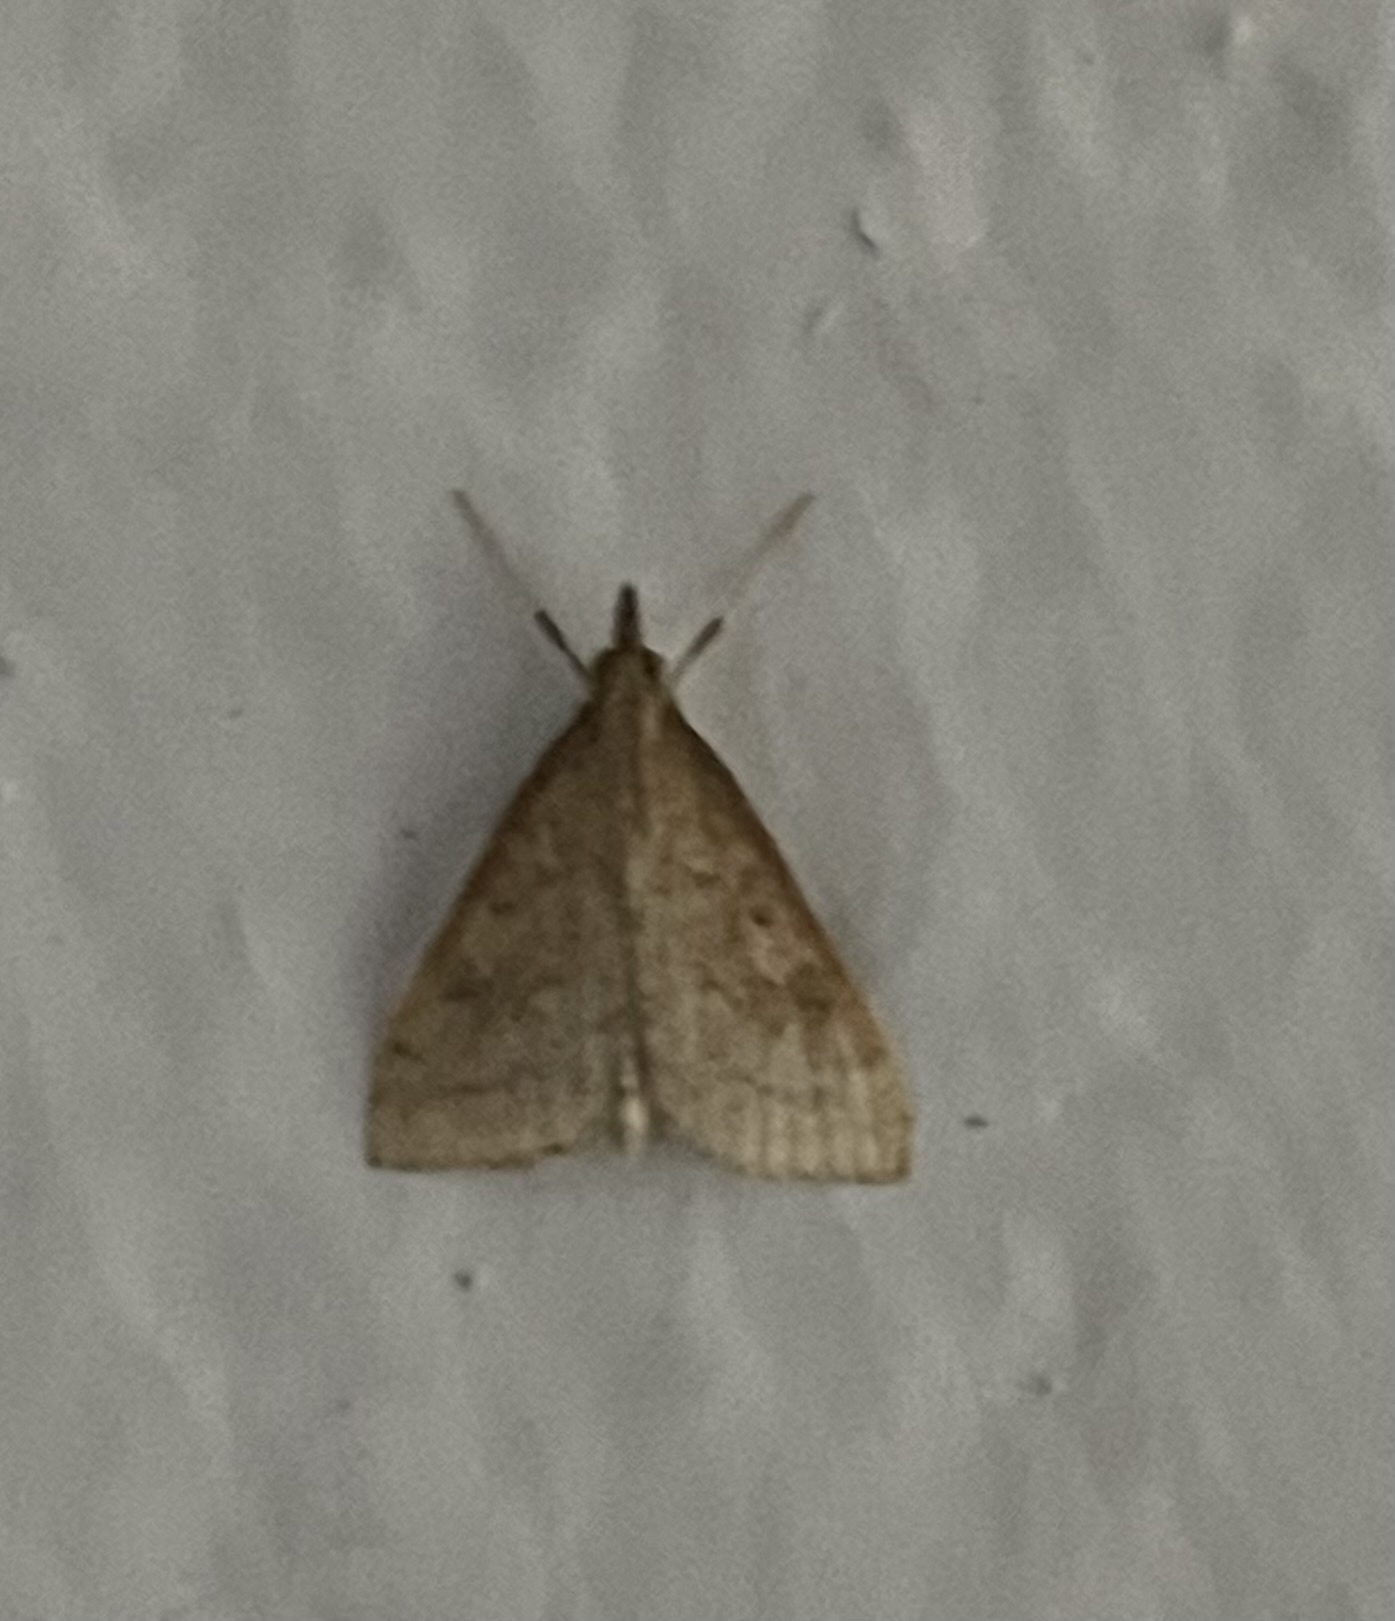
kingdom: Animalia
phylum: Arthropoda
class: Insecta
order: Lepidoptera
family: Crambidae
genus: Udea
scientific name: Udea rubigalis
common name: Celery leaftier moth
